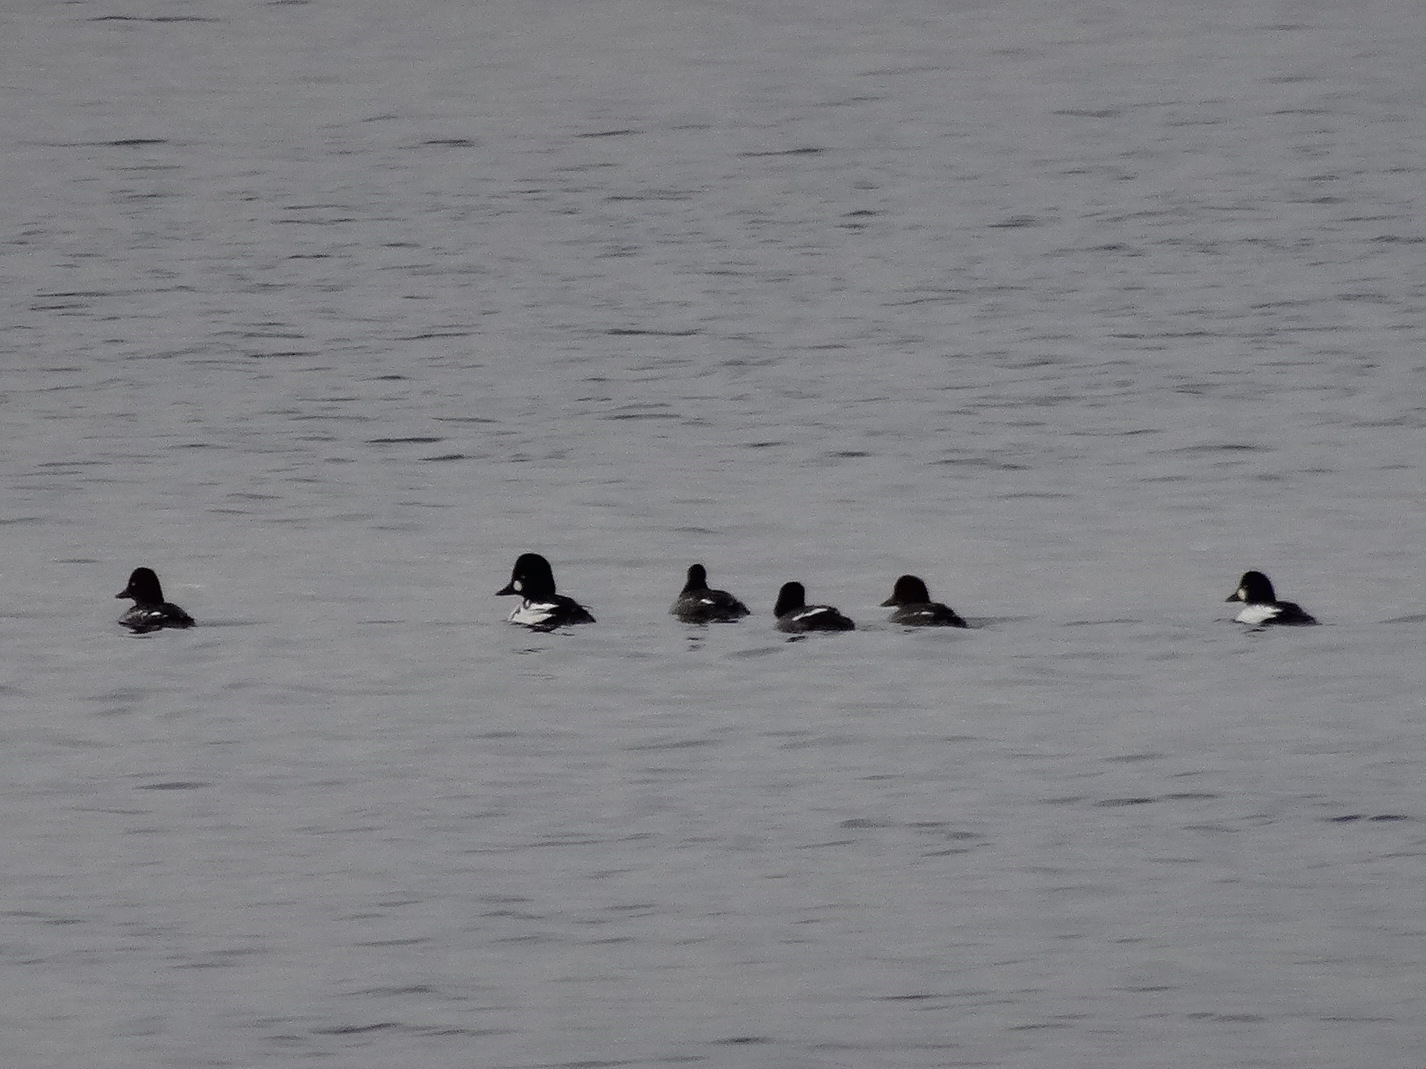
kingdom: Animalia
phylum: Chordata
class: Aves
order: Anseriformes
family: Anatidae
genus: Bucephala
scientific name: Bucephala clangula
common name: Common goldeneye
